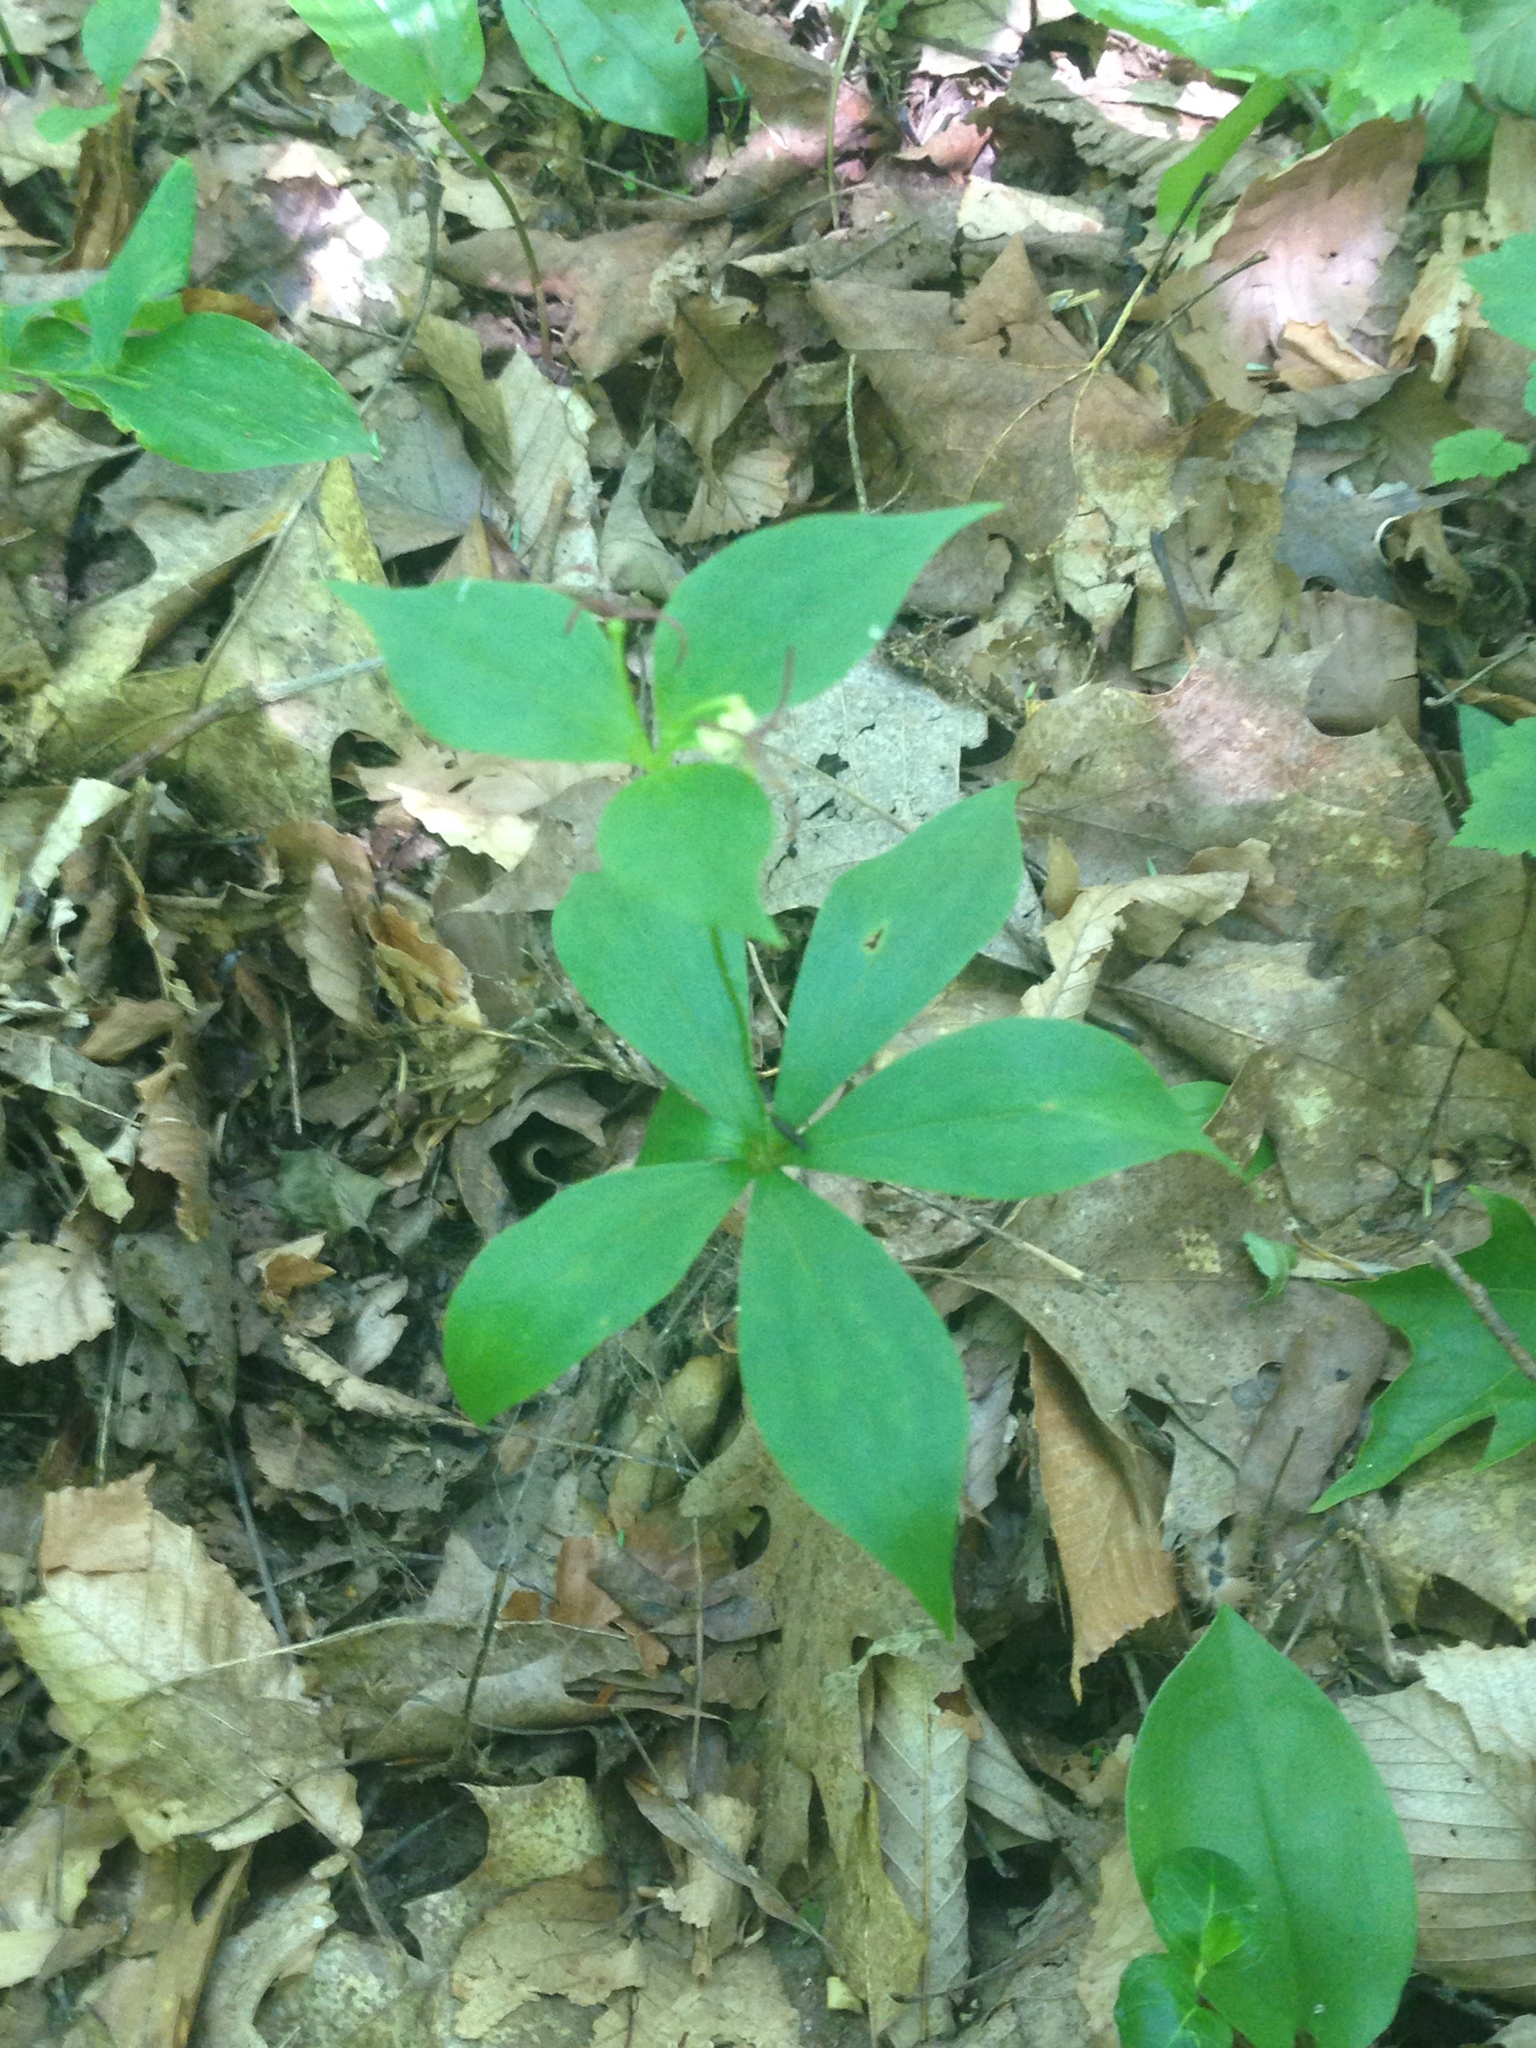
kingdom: Plantae
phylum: Tracheophyta
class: Liliopsida
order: Liliales
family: Liliaceae
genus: Medeola
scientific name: Medeola virginiana
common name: Indian cucumber-root
